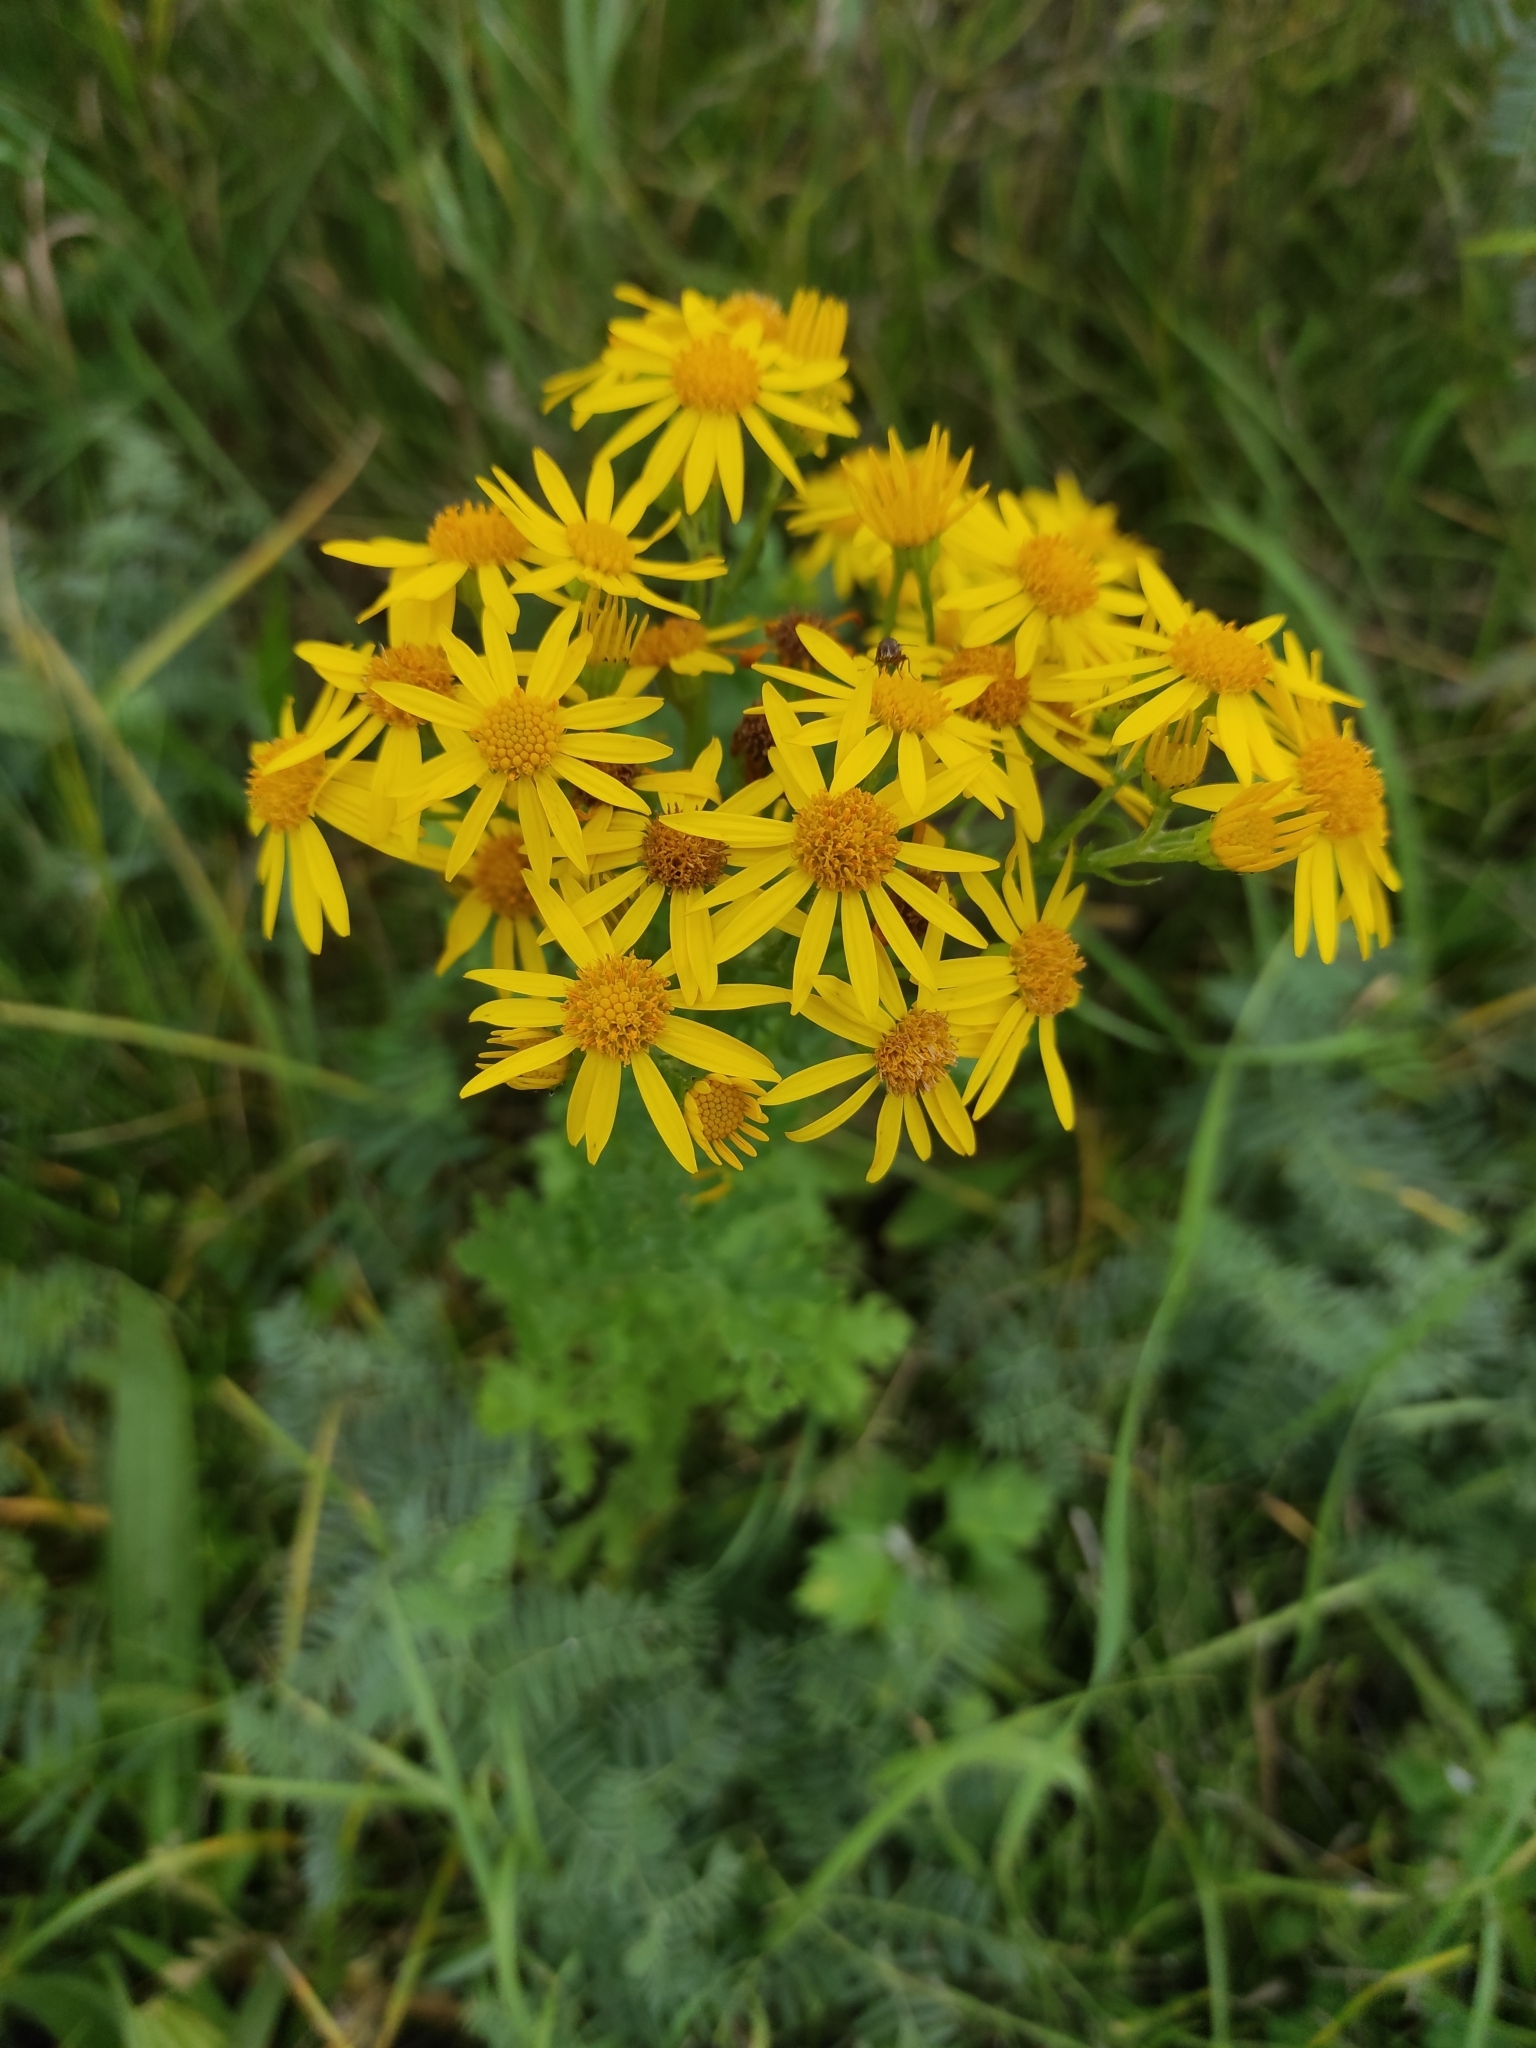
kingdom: Plantae
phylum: Tracheophyta
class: Magnoliopsida
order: Asterales
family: Asteraceae
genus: Jacobaea
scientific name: Jacobaea vulgaris
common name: Stinking willie
